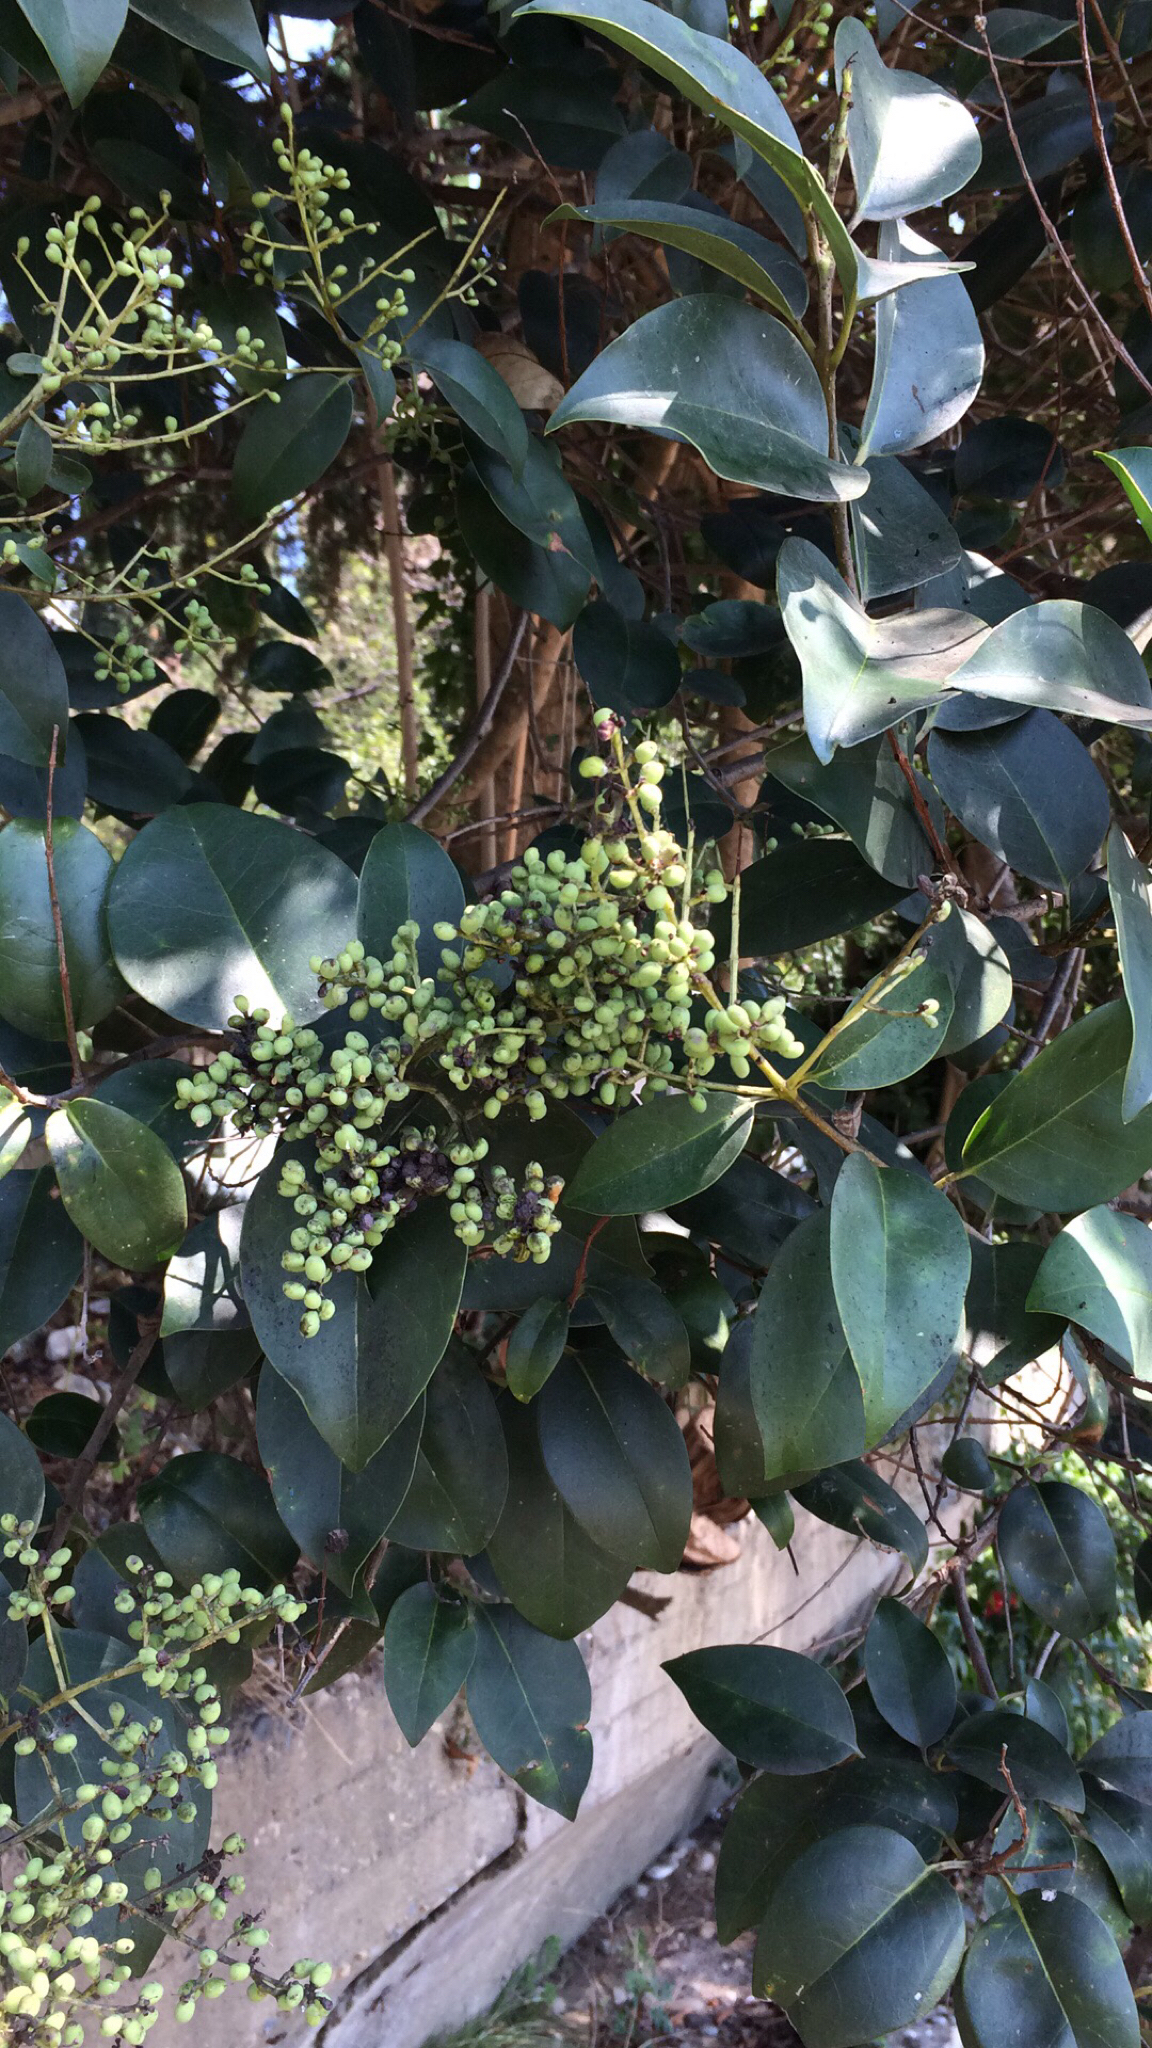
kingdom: Plantae
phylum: Tracheophyta
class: Magnoliopsida
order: Lamiales
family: Oleaceae
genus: Ligustrum
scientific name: Ligustrum lucidum
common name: Glossy privet
